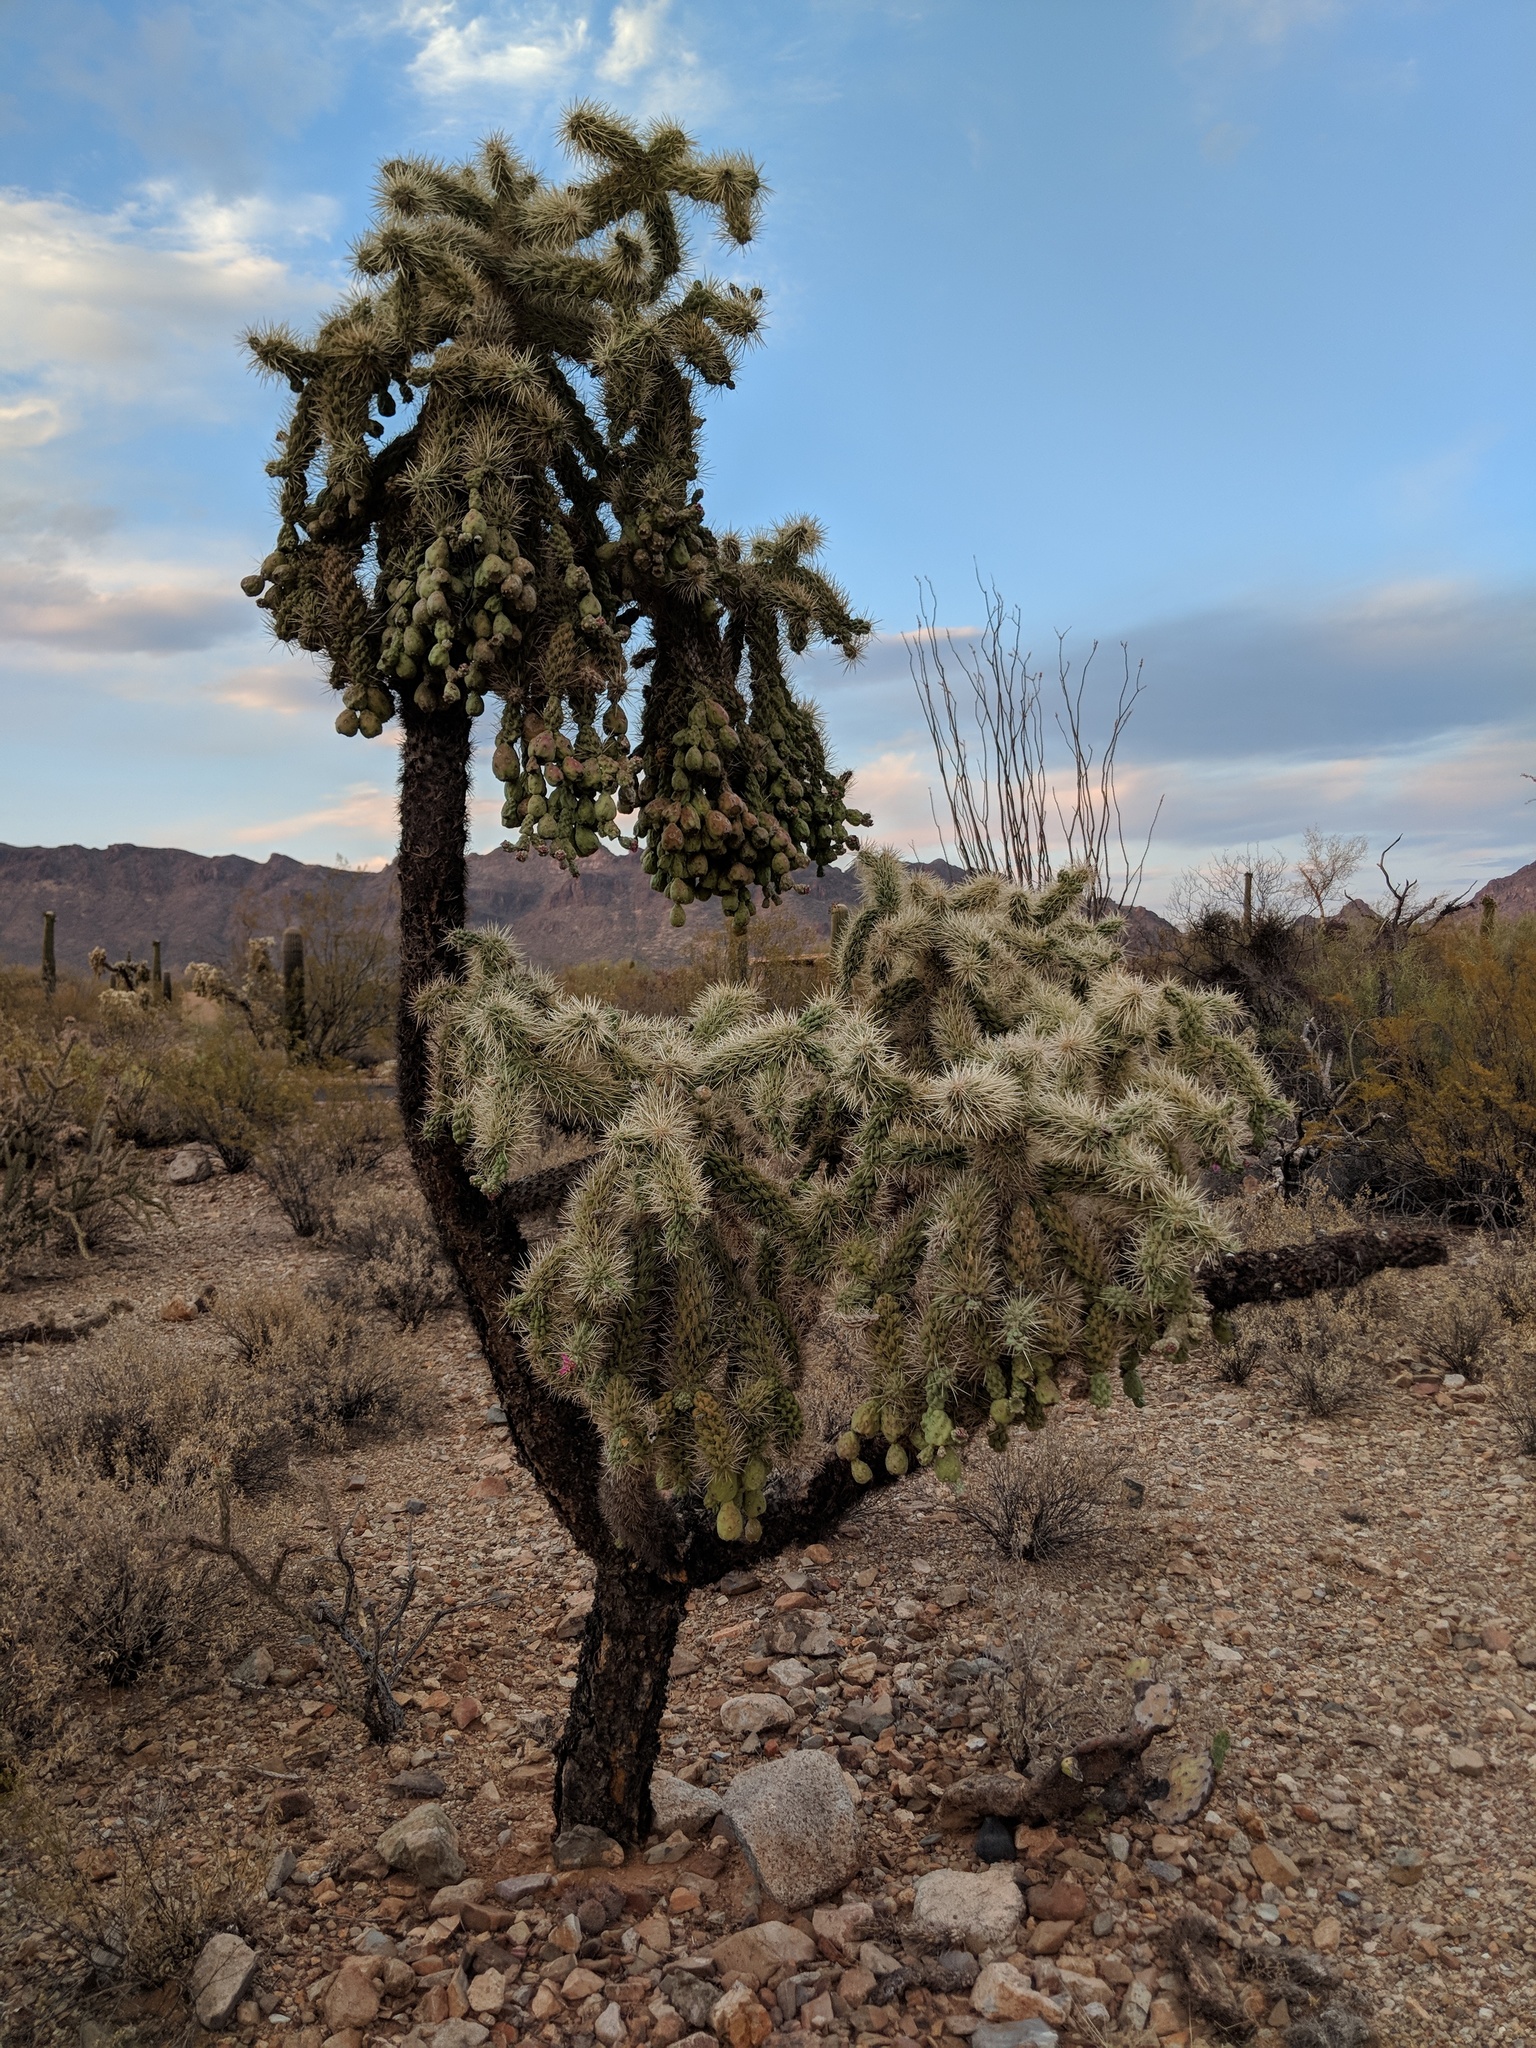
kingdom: Plantae
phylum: Tracheophyta
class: Magnoliopsida
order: Caryophyllales
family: Cactaceae
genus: Cylindropuntia
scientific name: Cylindropuntia fulgida
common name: Jumping cholla
